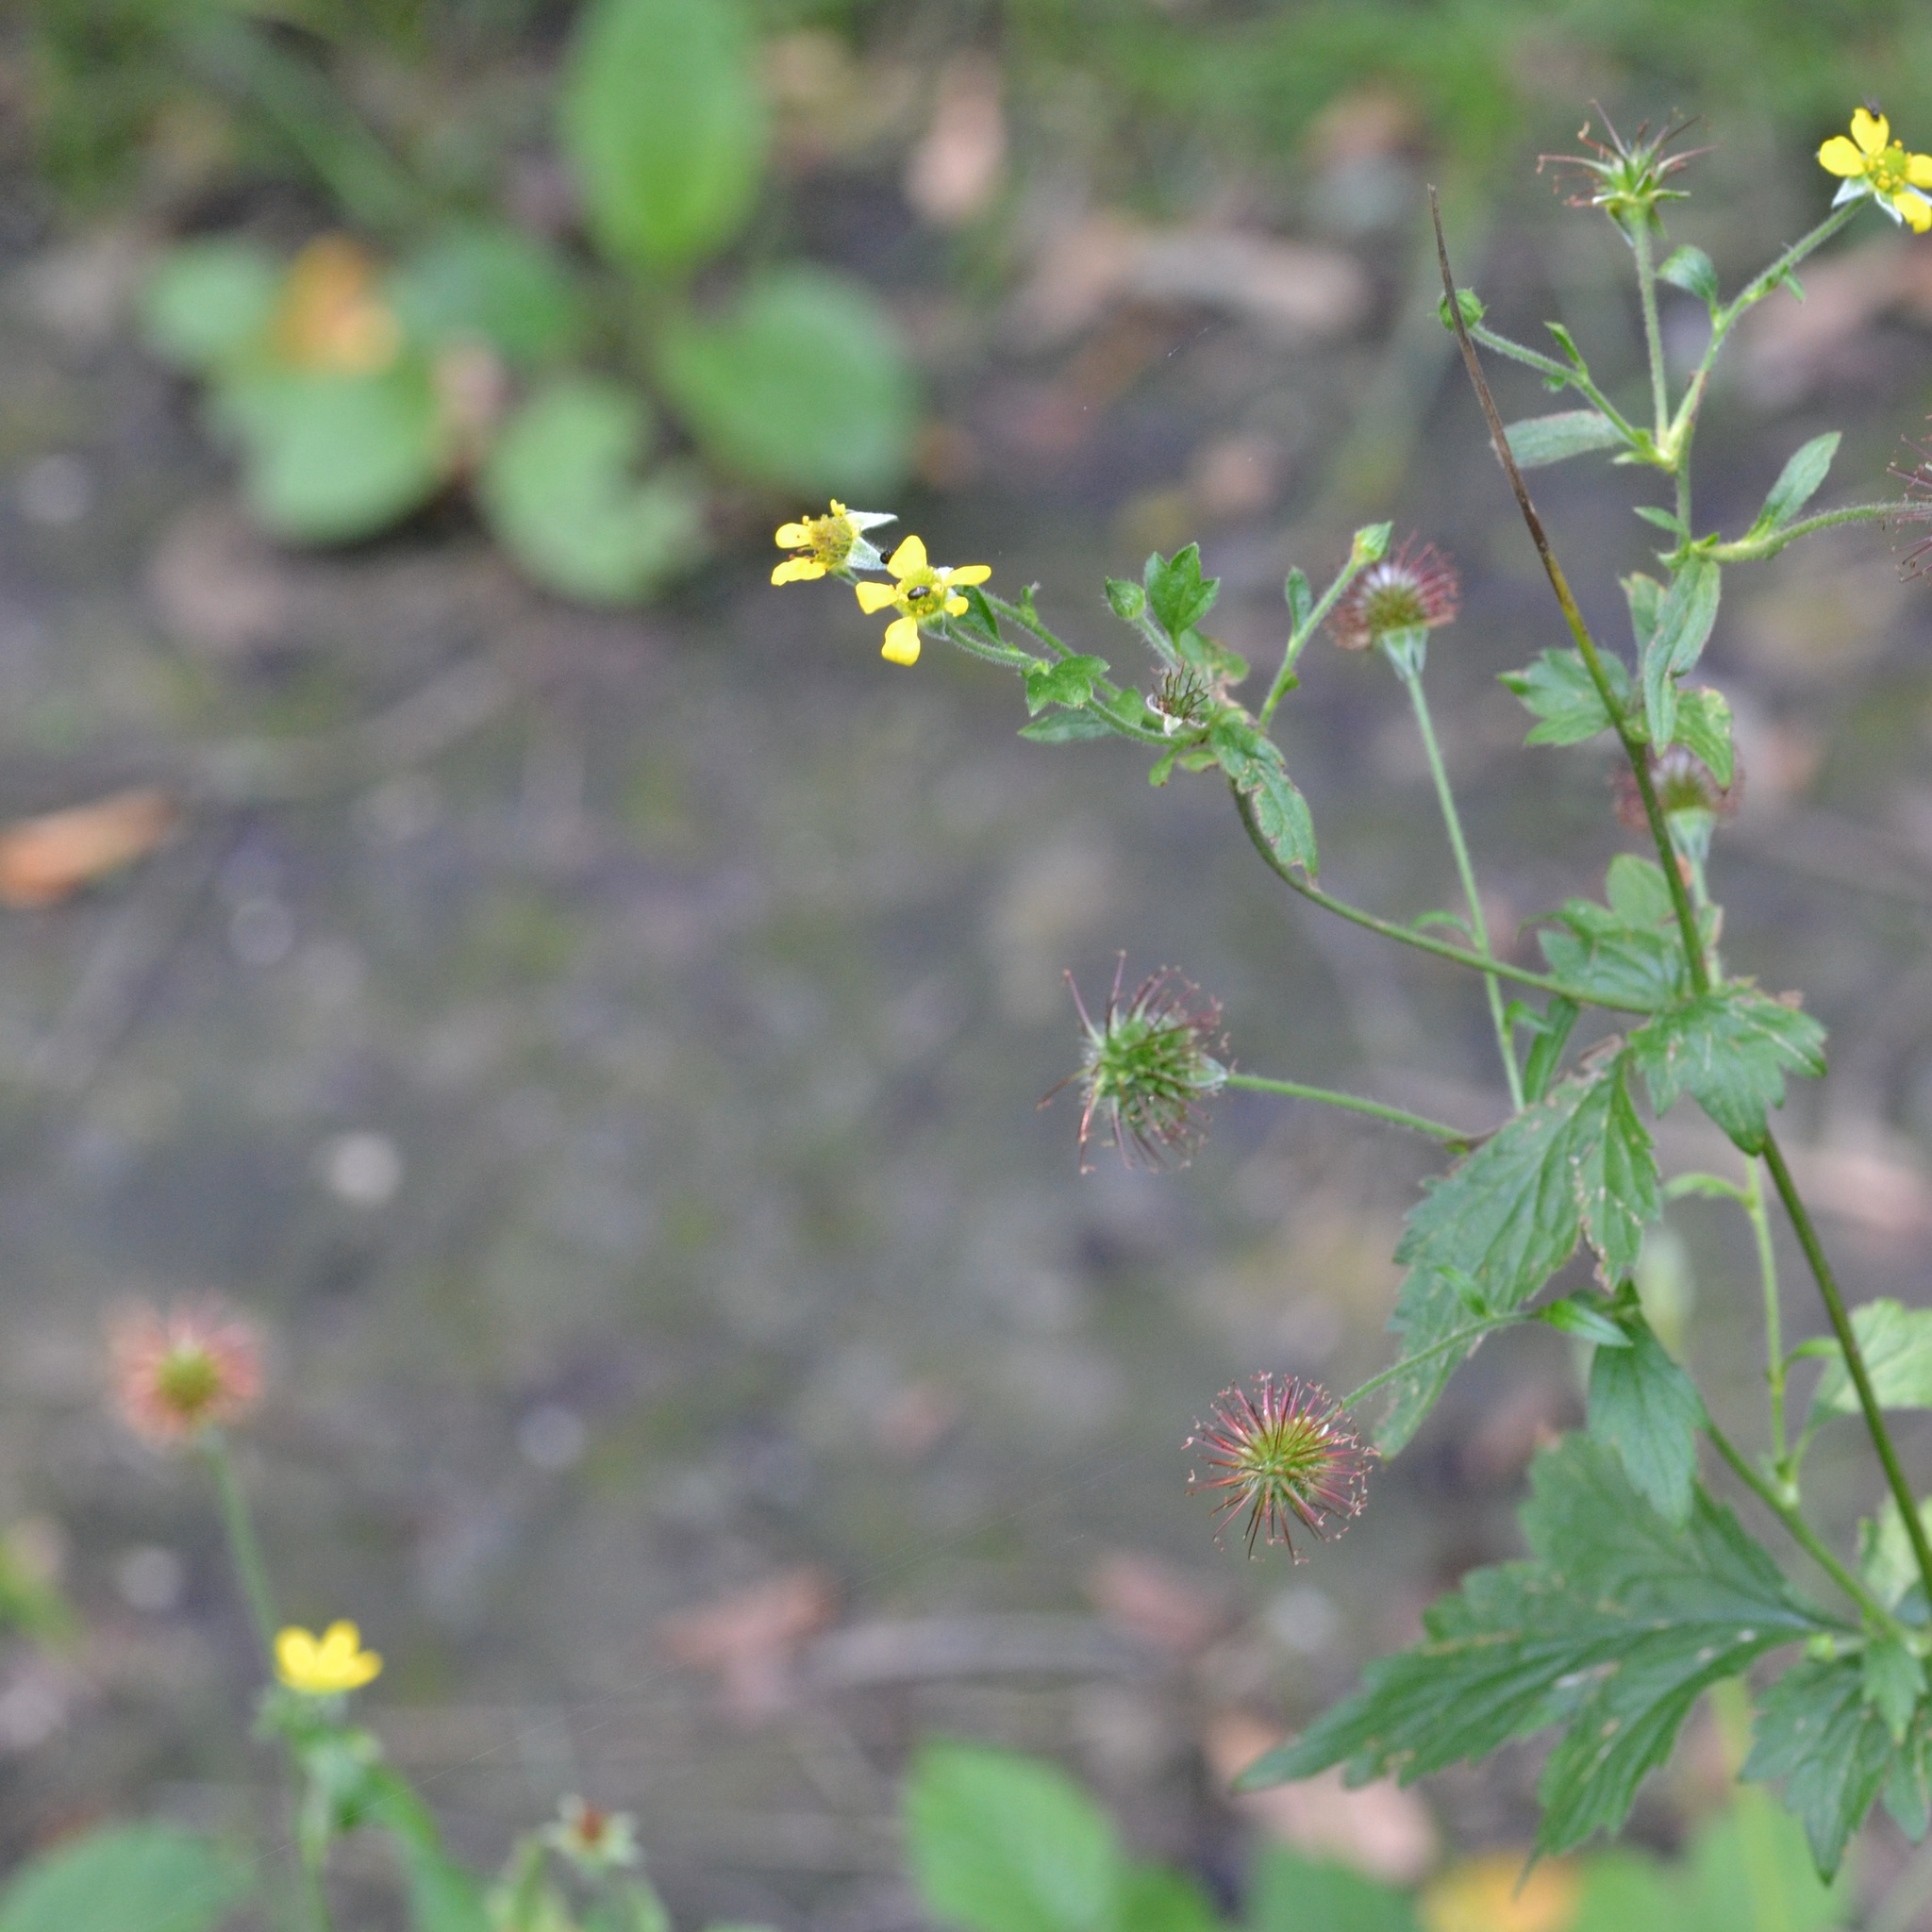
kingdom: Plantae
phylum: Tracheophyta
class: Magnoliopsida
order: Rosales
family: Rosaceae
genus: Geum
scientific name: Geum urbanum
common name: Wood avens
